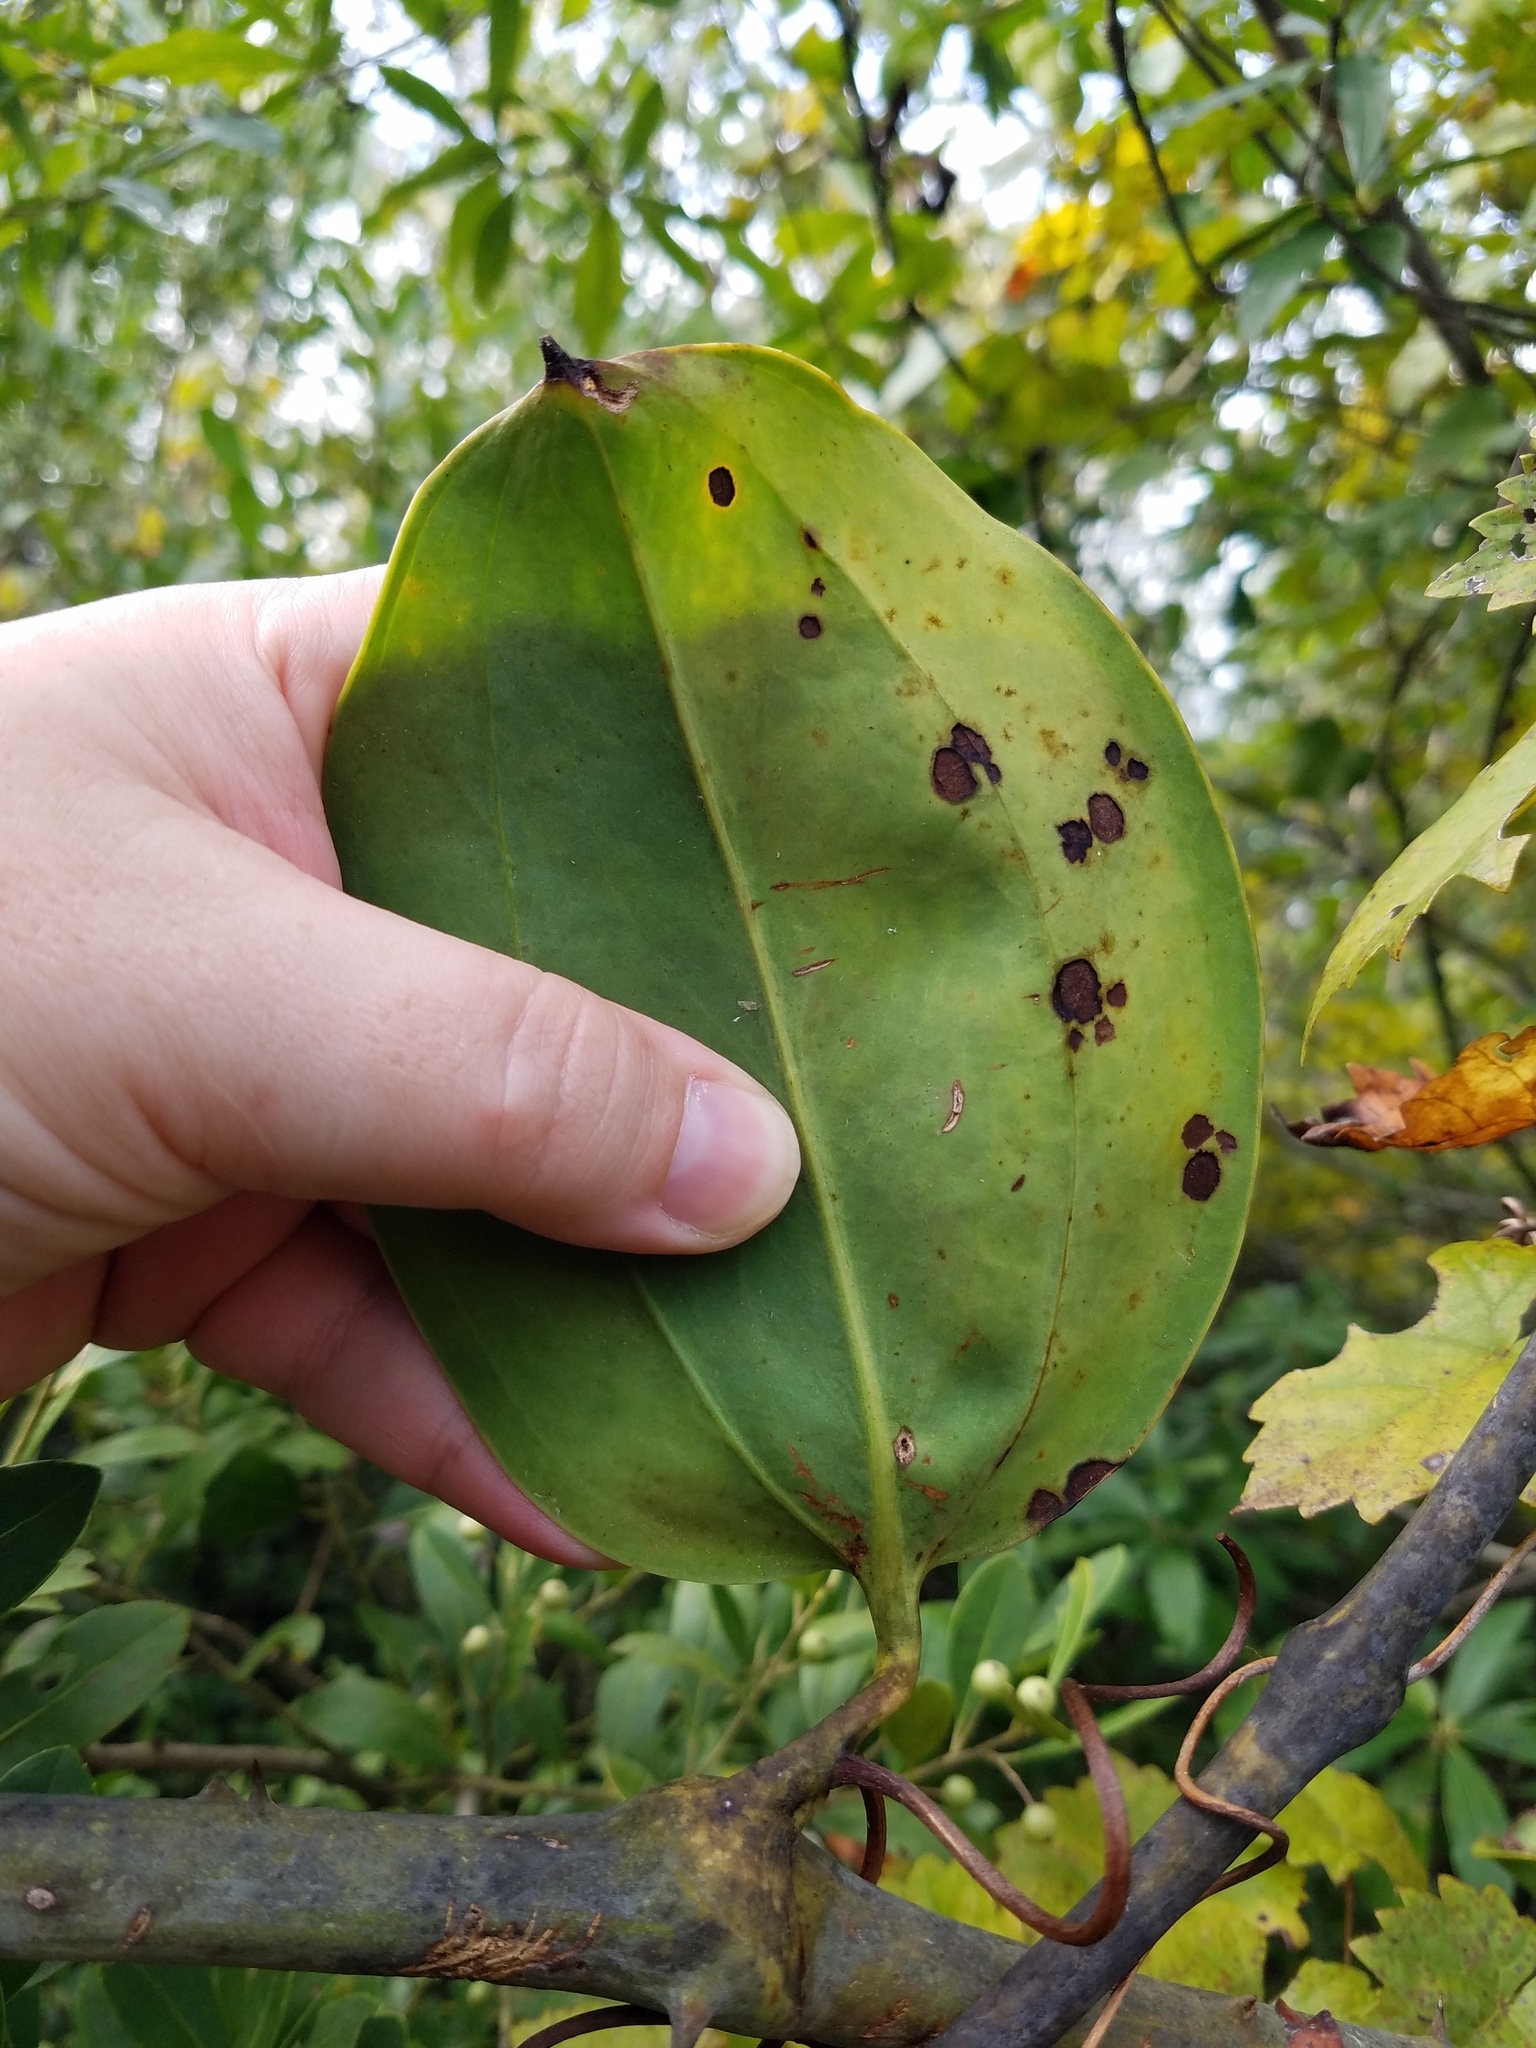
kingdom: Plantae
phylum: Tracheophyta
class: Liliopsida
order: Liliales
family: Smilacaceae
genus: Smilax
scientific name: Smilax laurifolia
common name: Bamboovine
